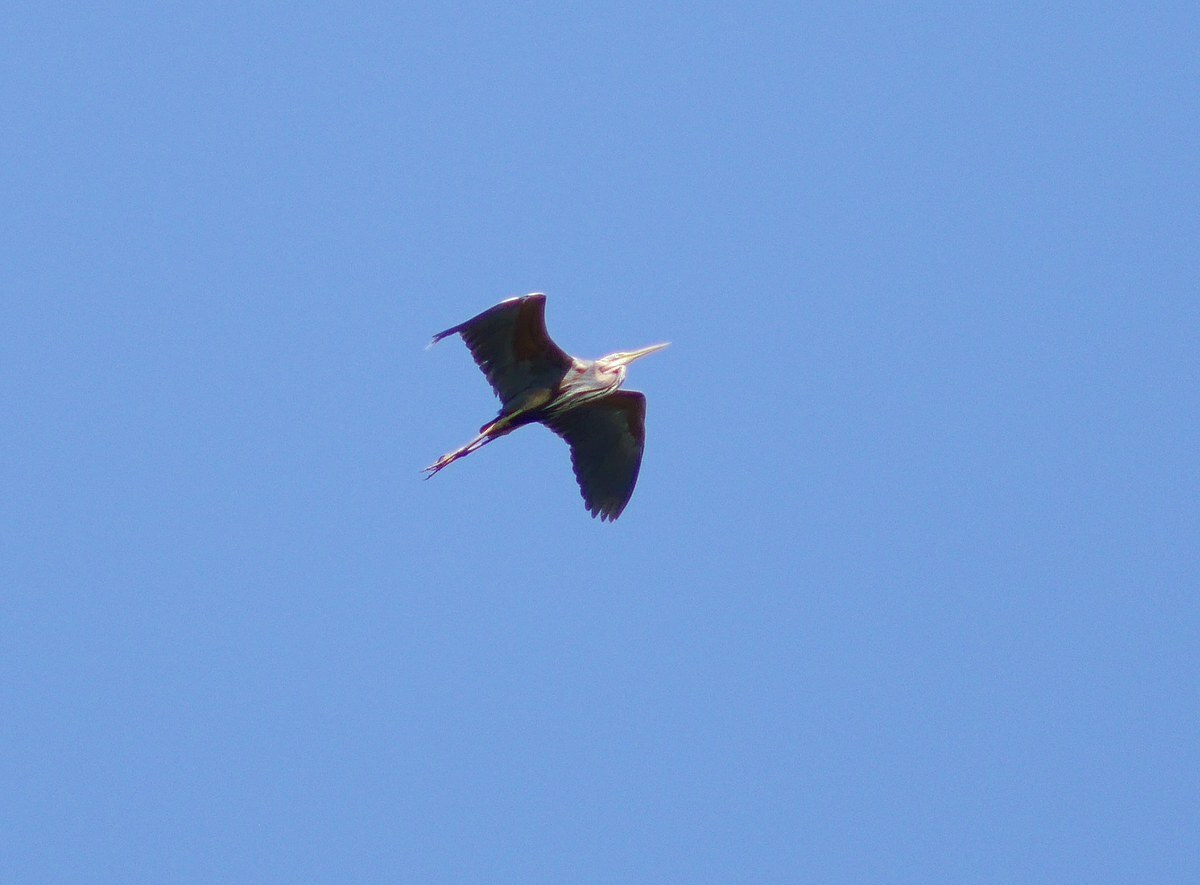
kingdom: Animalia
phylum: Chordata
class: Aves
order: Pelecaniformes
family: Ardeidae
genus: Ardea
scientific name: Ardea cinerea
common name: Grey heron
